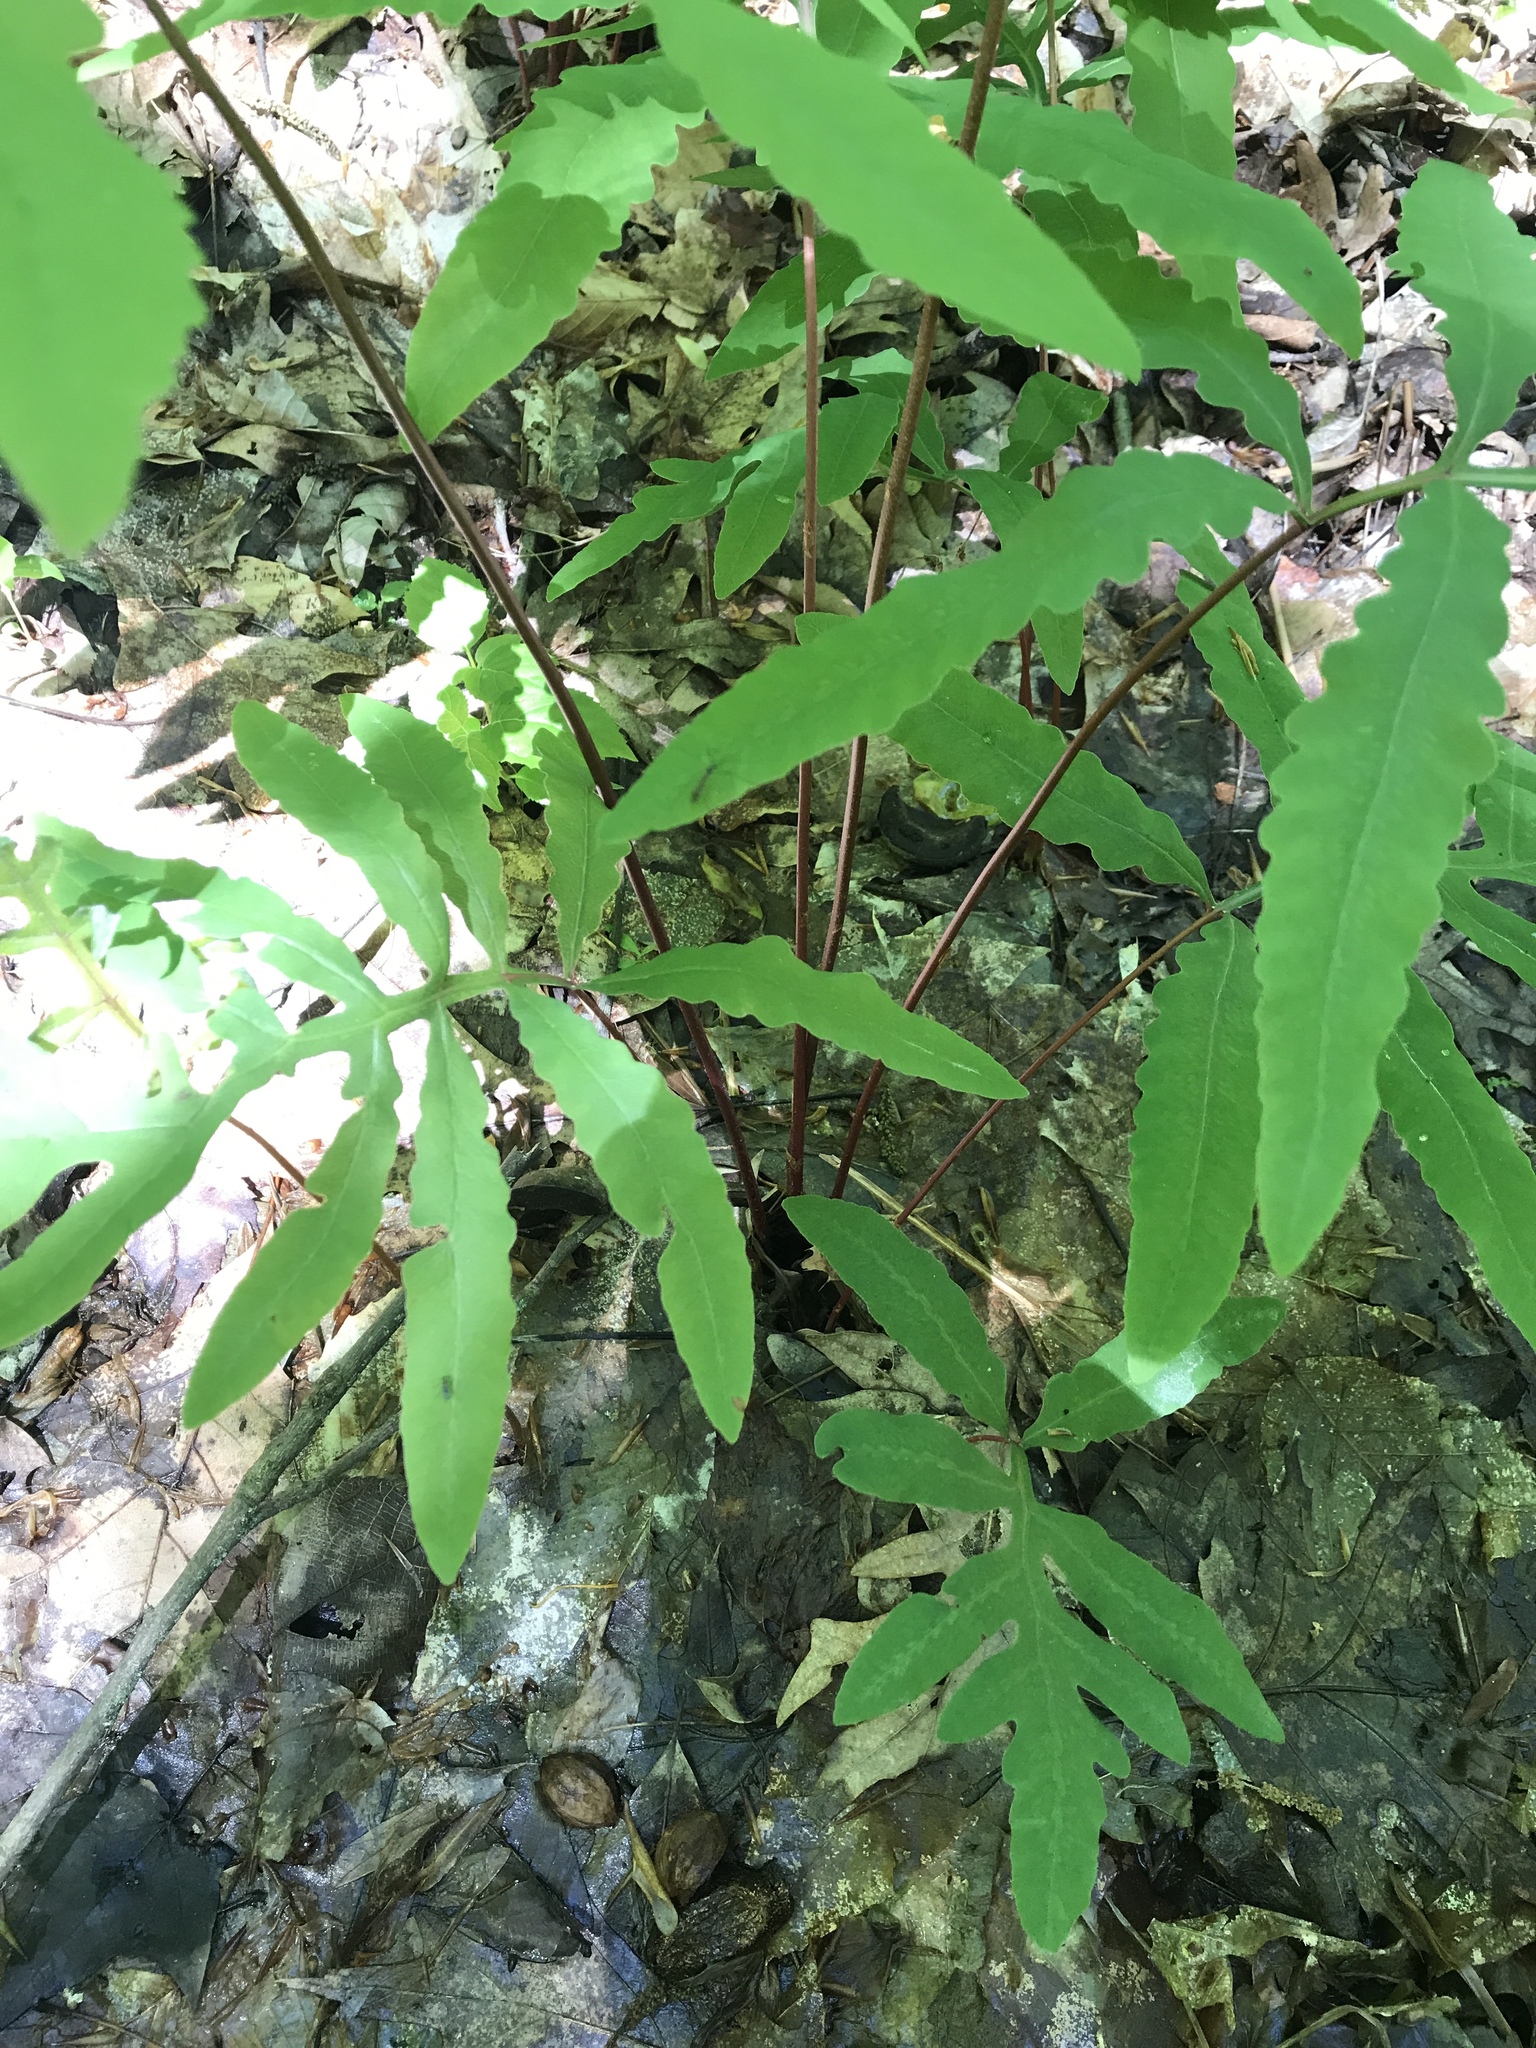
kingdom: Plantae
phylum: Tracheophyta
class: Polypodiopsida
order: Polypodiales
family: Onocleaceae
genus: Onoclea
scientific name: Onoclea sensibilis
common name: Sensitive fern
